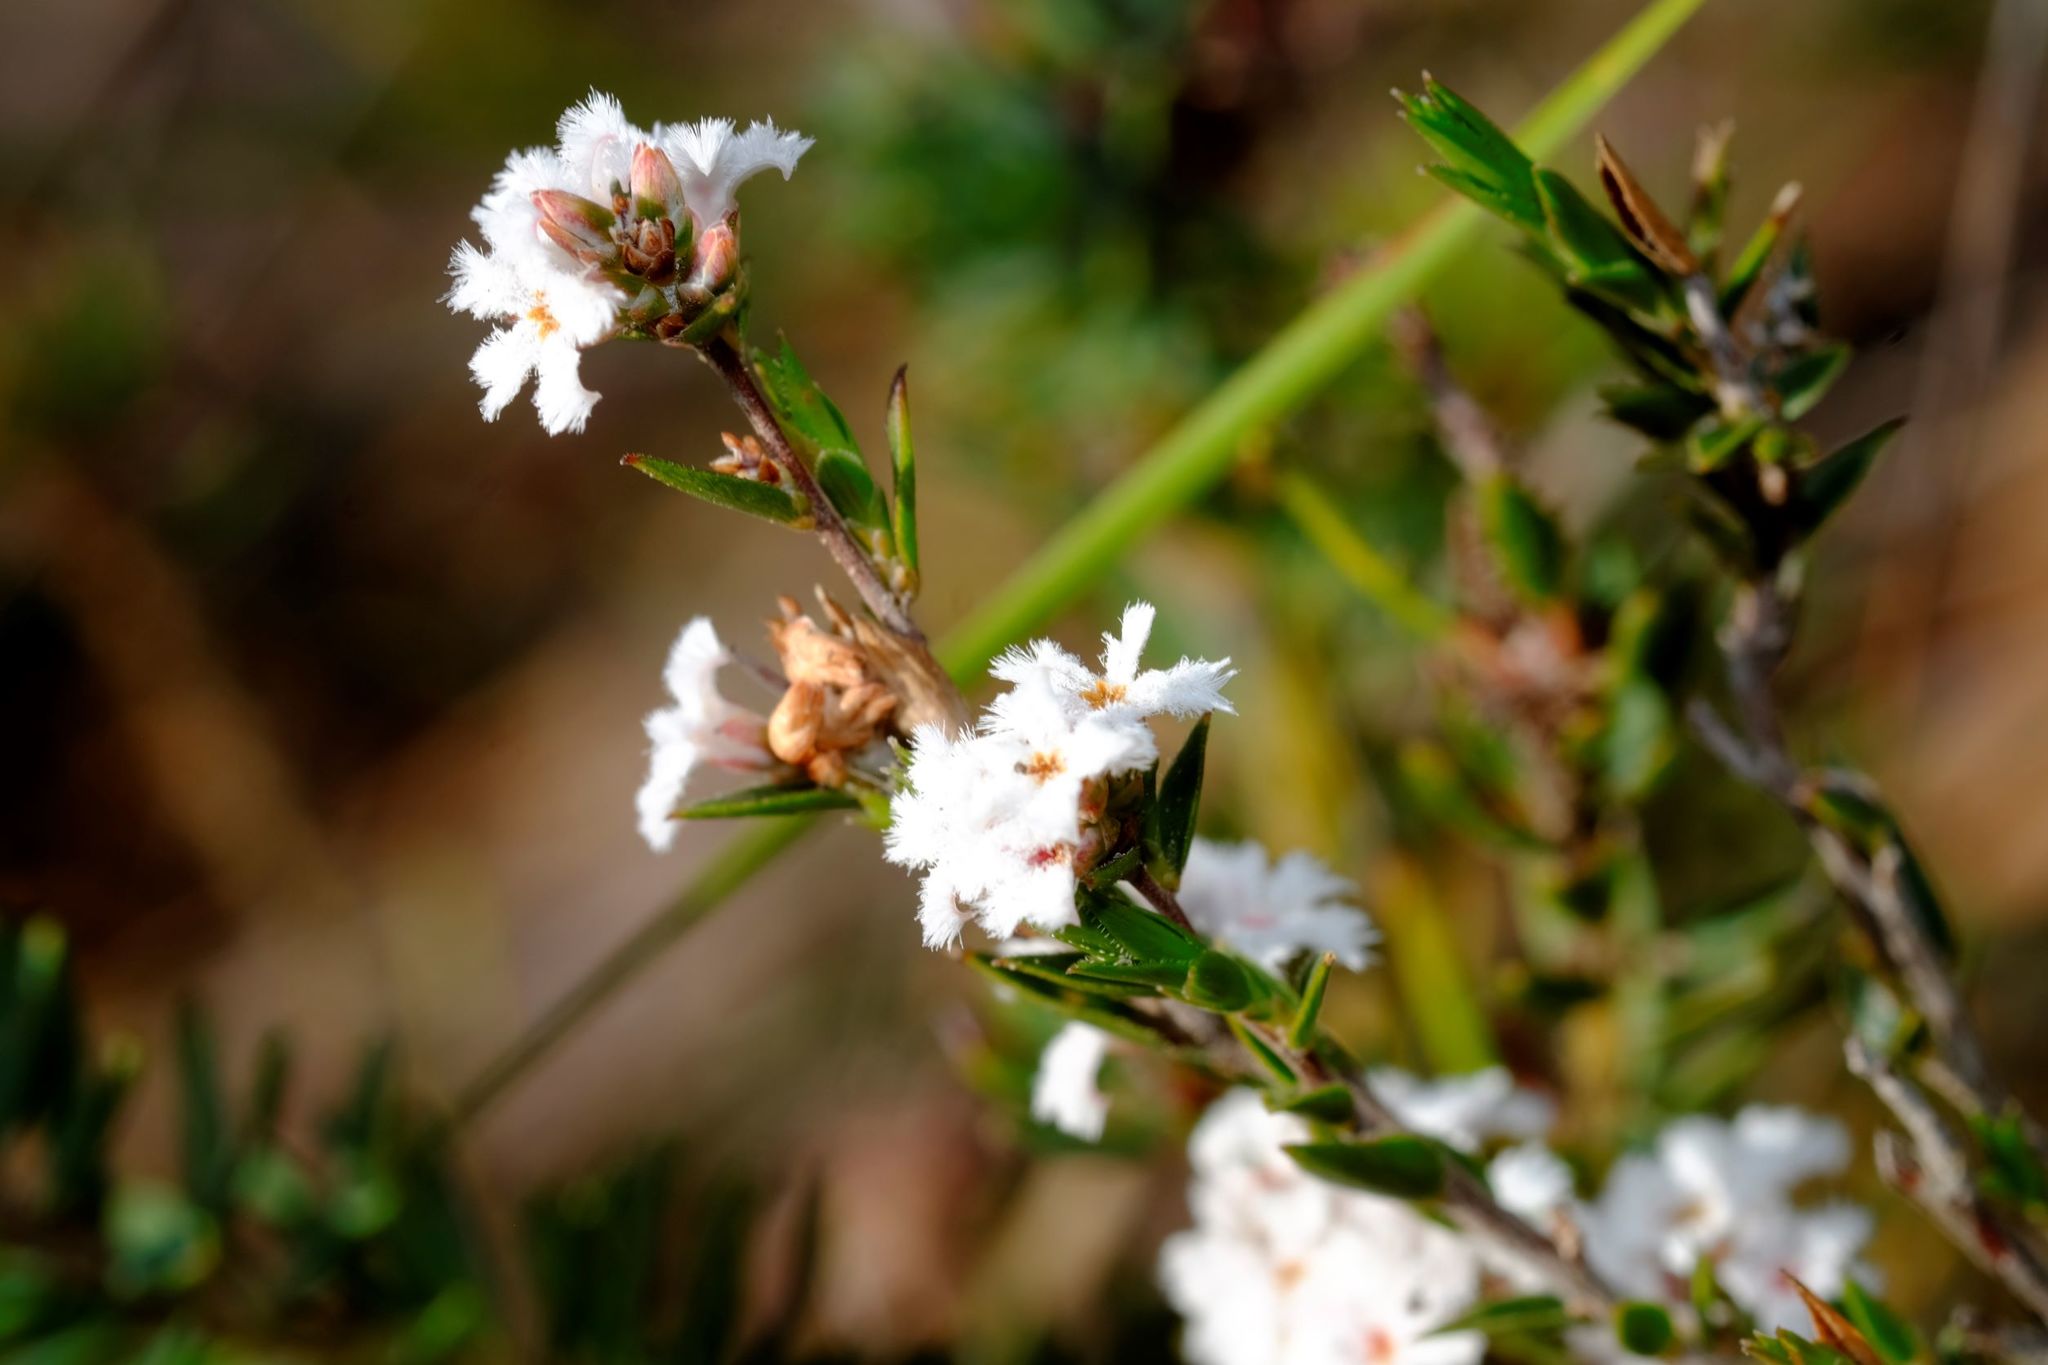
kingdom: Plantae
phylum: Tracheophyta
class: Magnoliopsida
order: Ericales
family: Ericaceae
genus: Leucopogon
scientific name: Leucopogon virgatus
